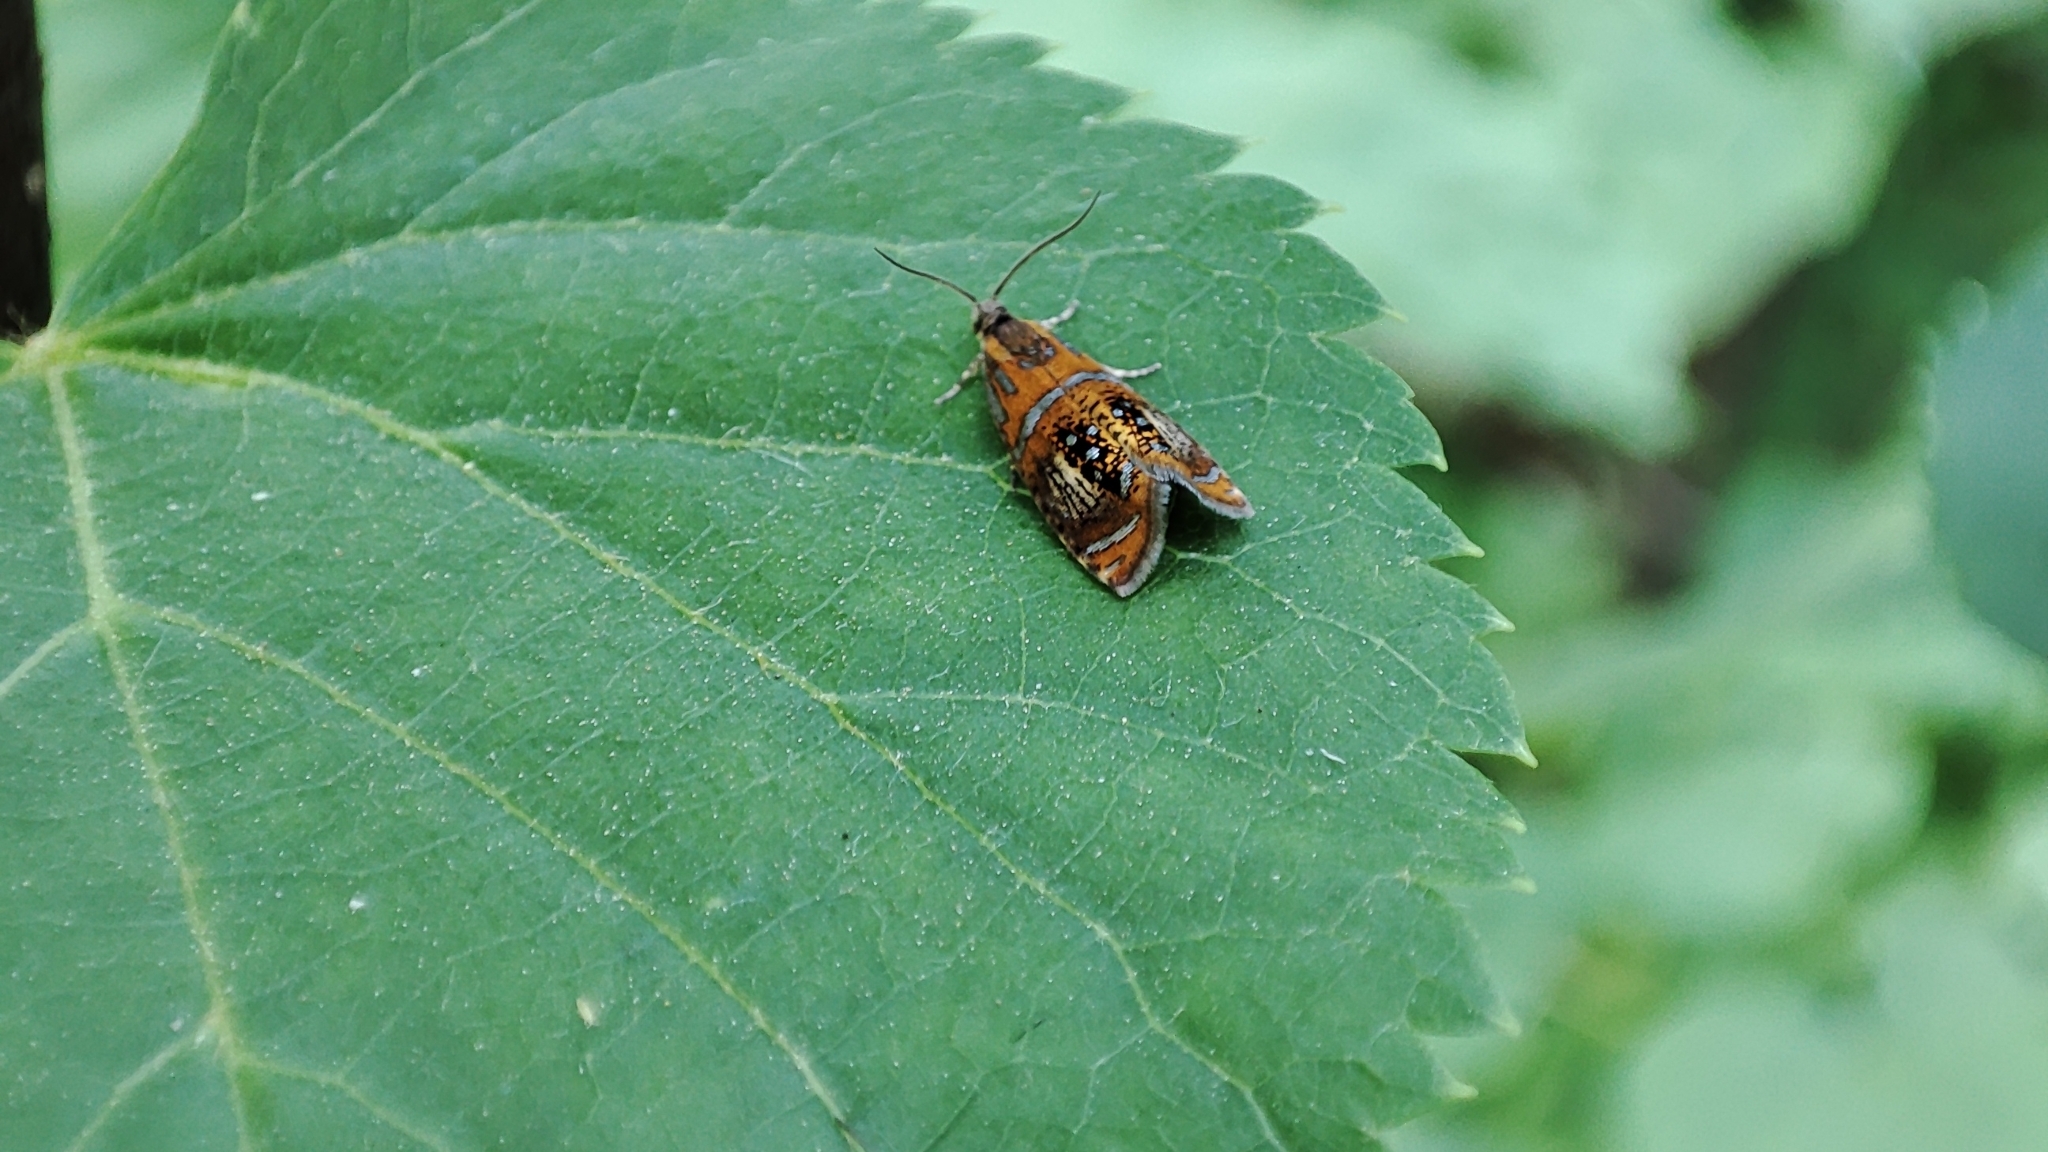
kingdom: Animalia
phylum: Arthropoda
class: Insecta
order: Lepidoptera
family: Tortricidae
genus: Olethreutes
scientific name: Olethreutes subtilana
